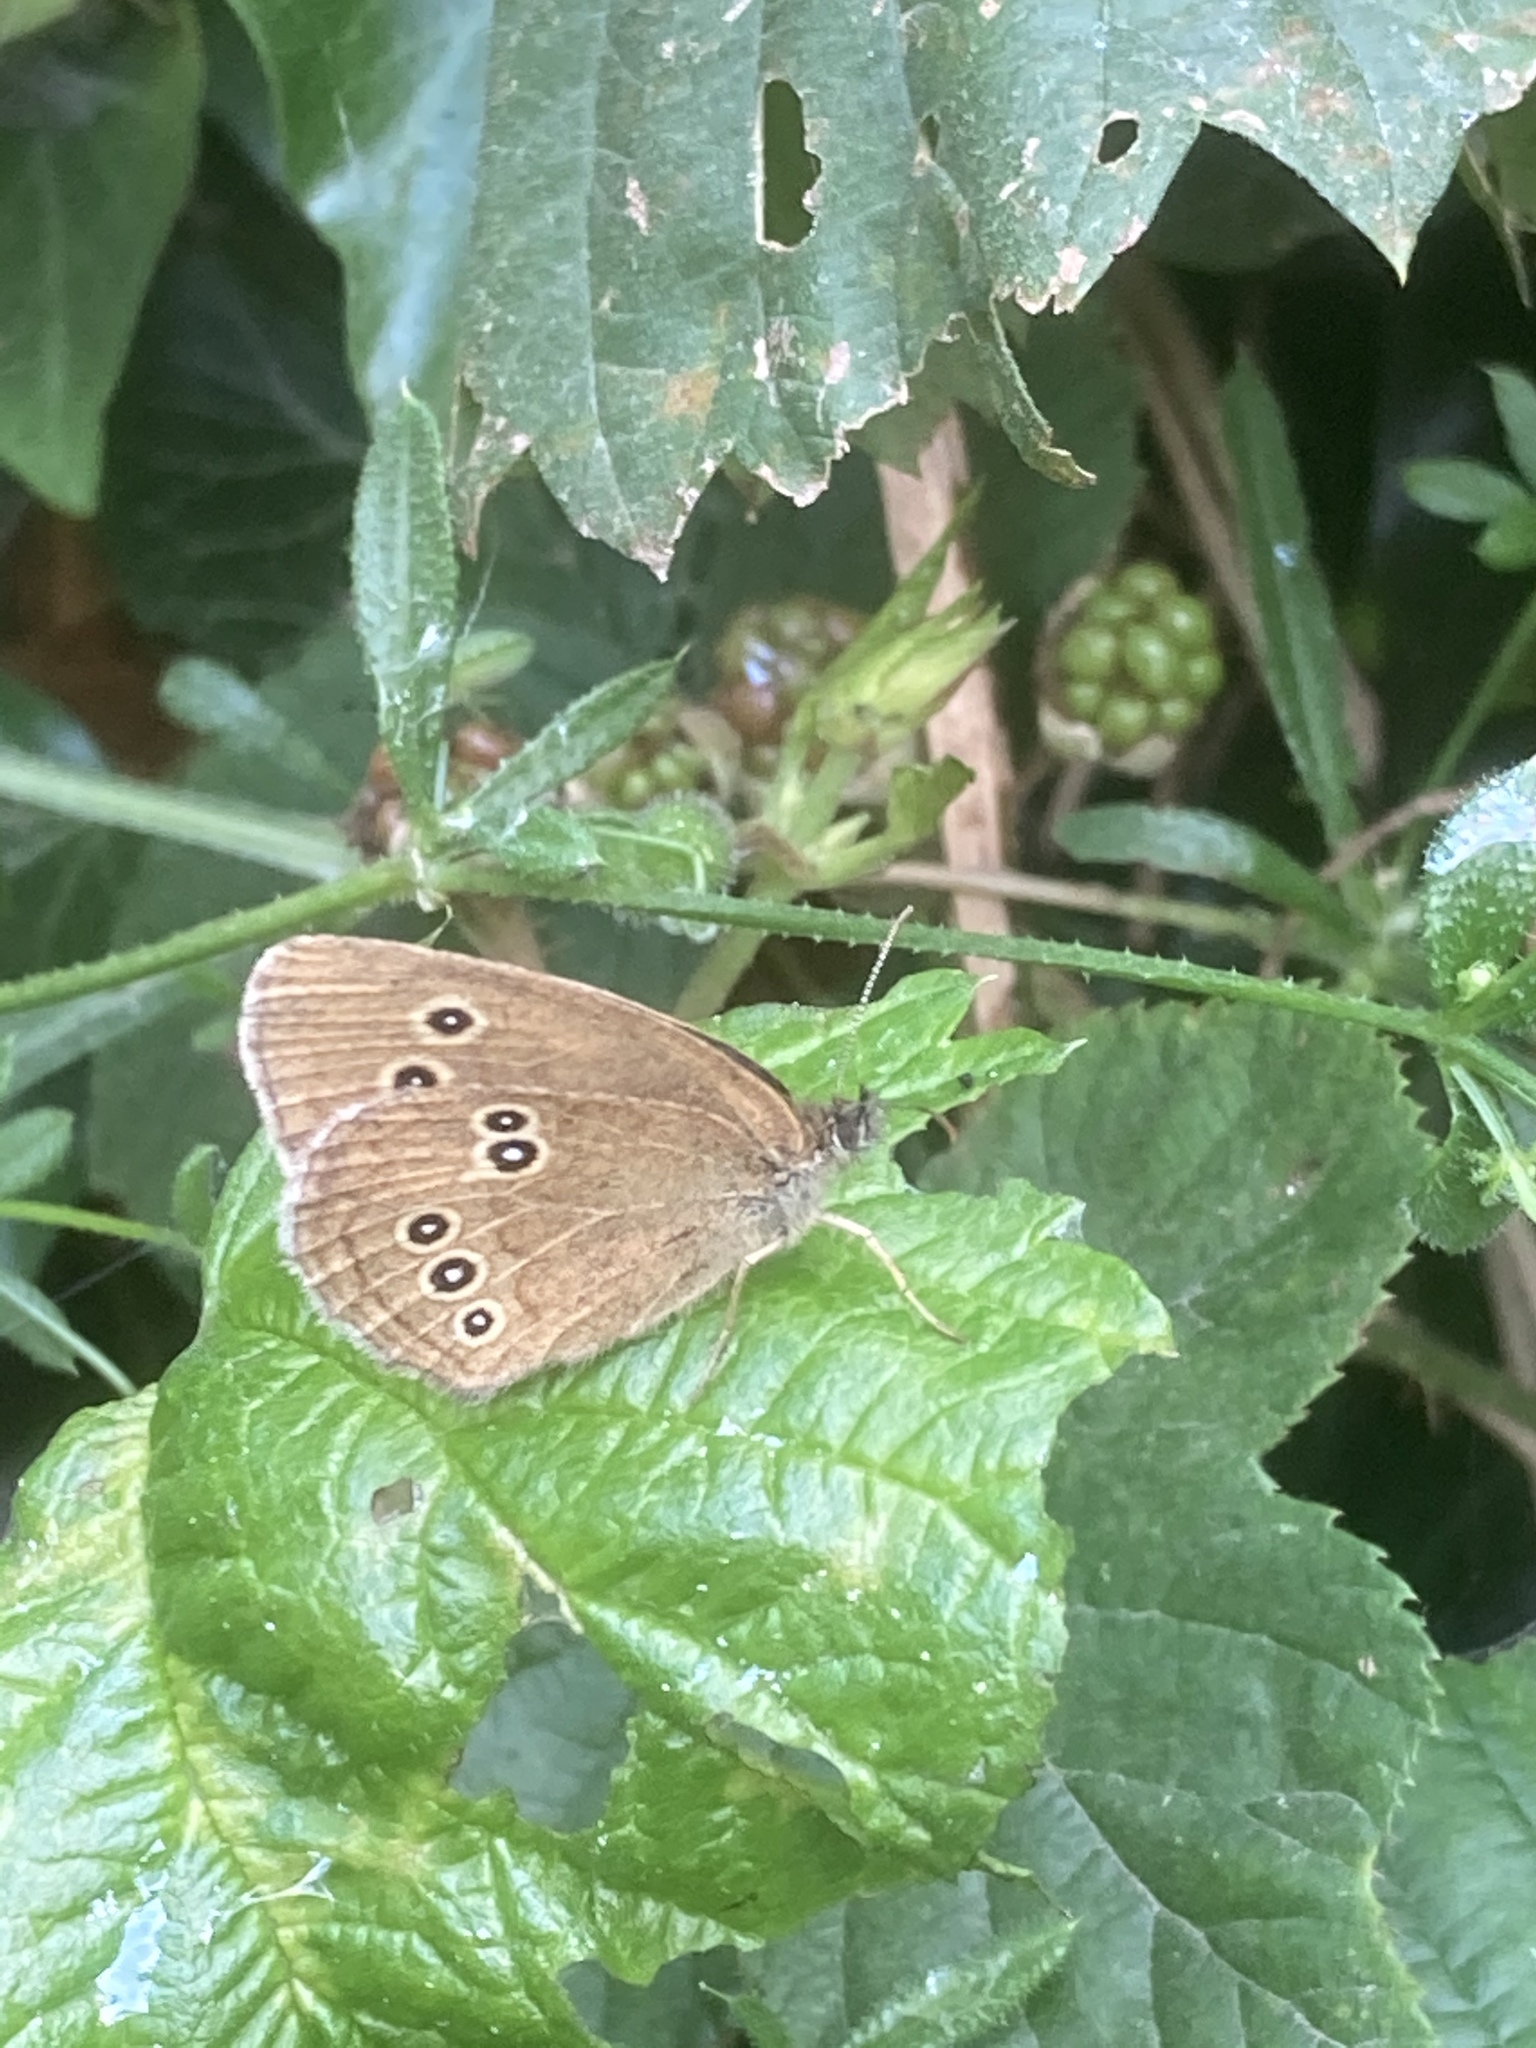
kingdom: Animalia
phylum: Arthropoda
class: Insecta
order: Lepidoptera
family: Nymphalidae
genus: Aphantopus
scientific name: Aphantopus hyperantus
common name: Ringlet
